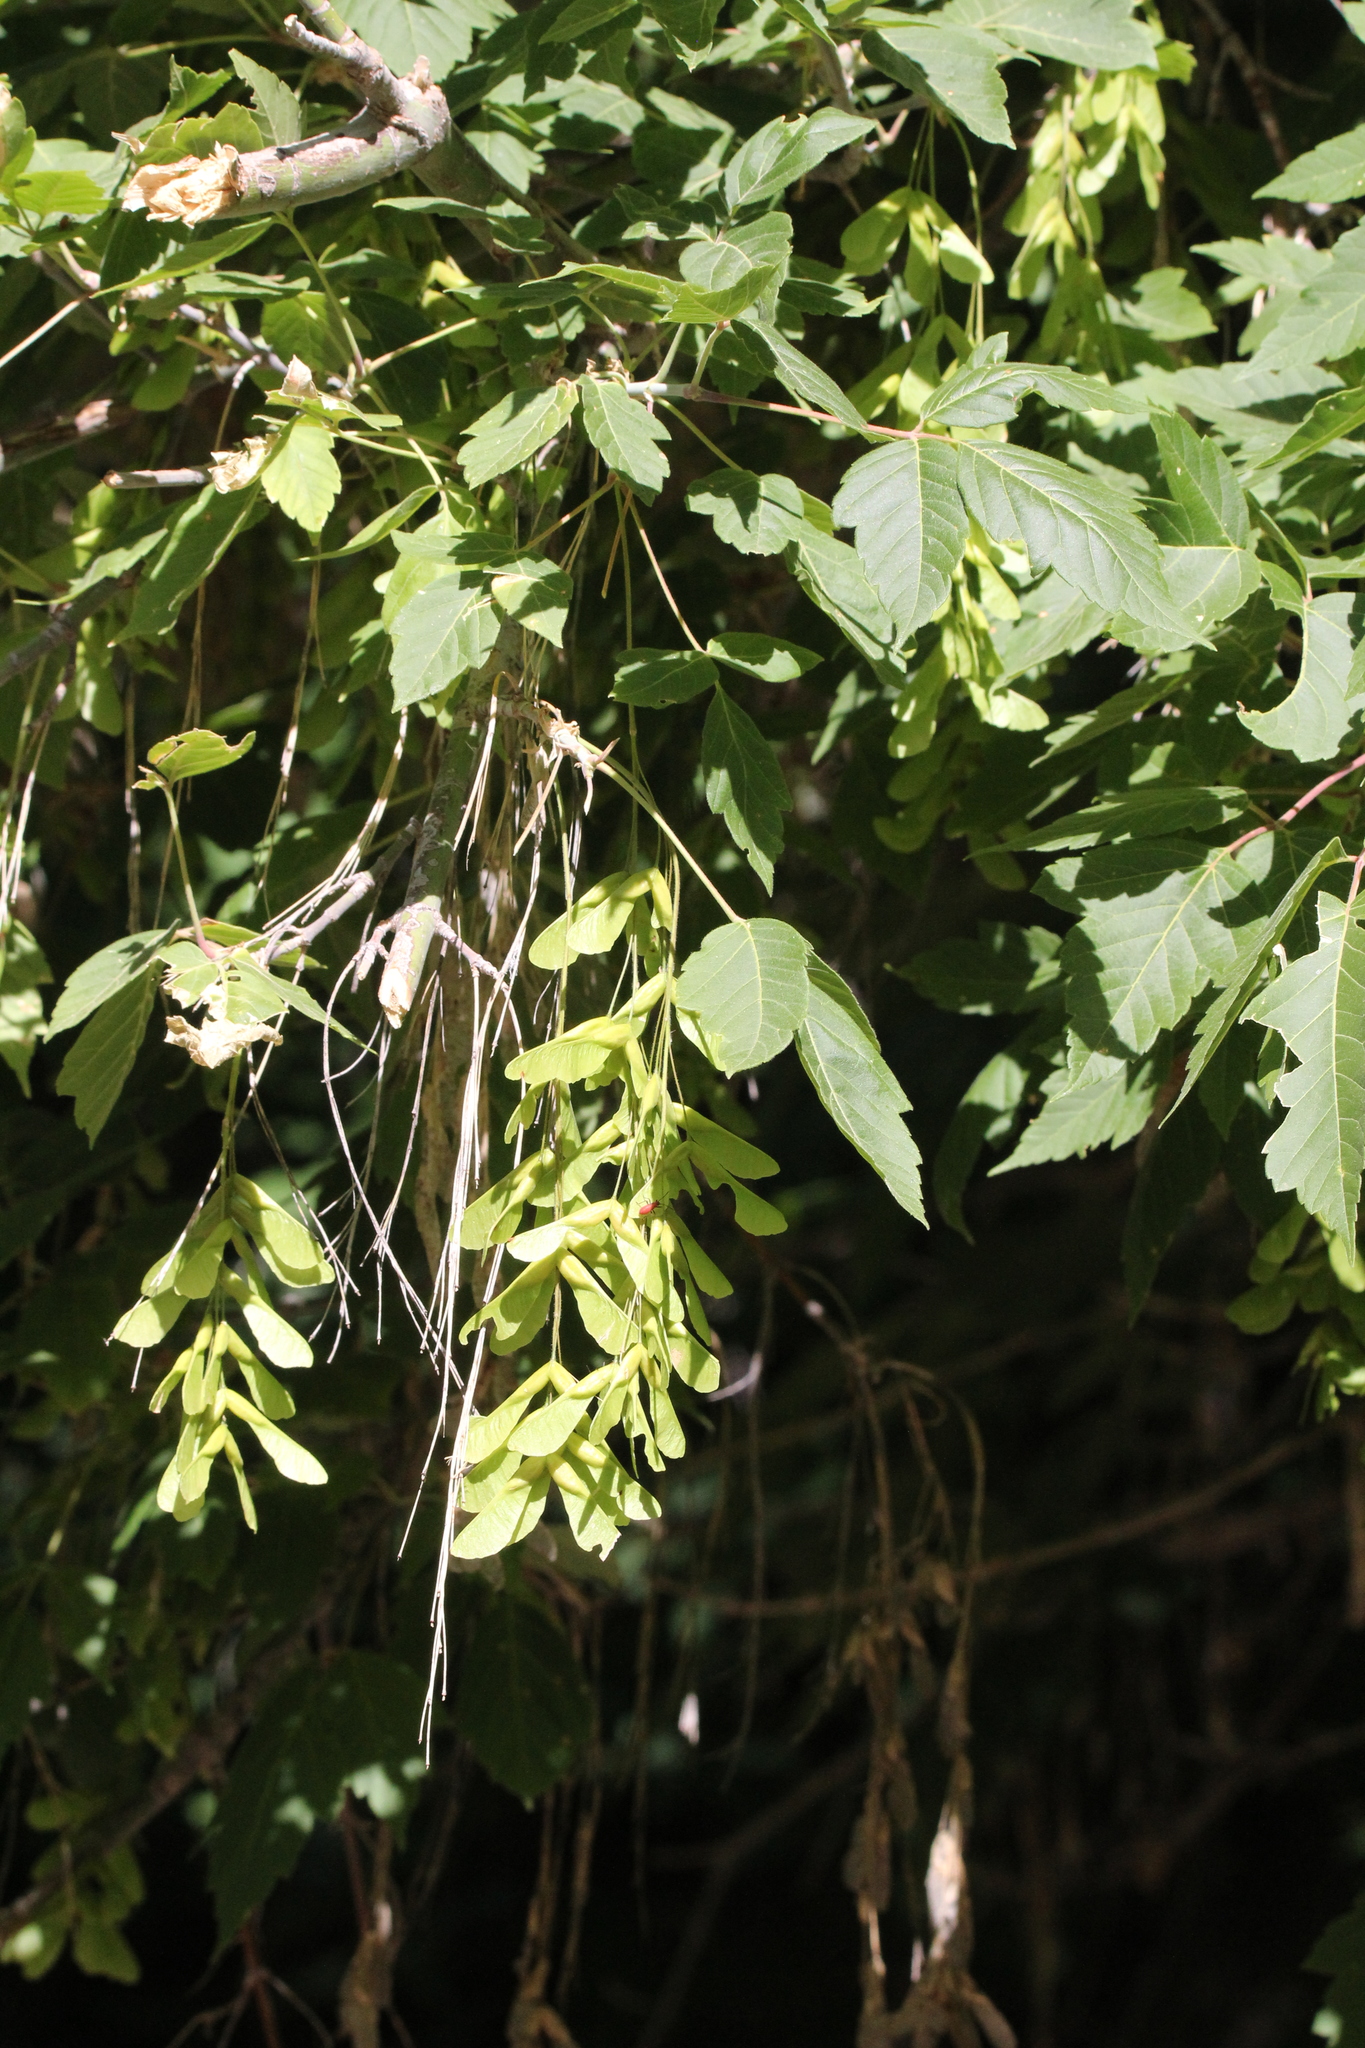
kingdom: Plantae
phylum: Tracheophyta
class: Magnoliopsida
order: Sapindales
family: Sapindaceae
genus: Acer
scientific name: Acer negundo
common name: Ashleaf maple
